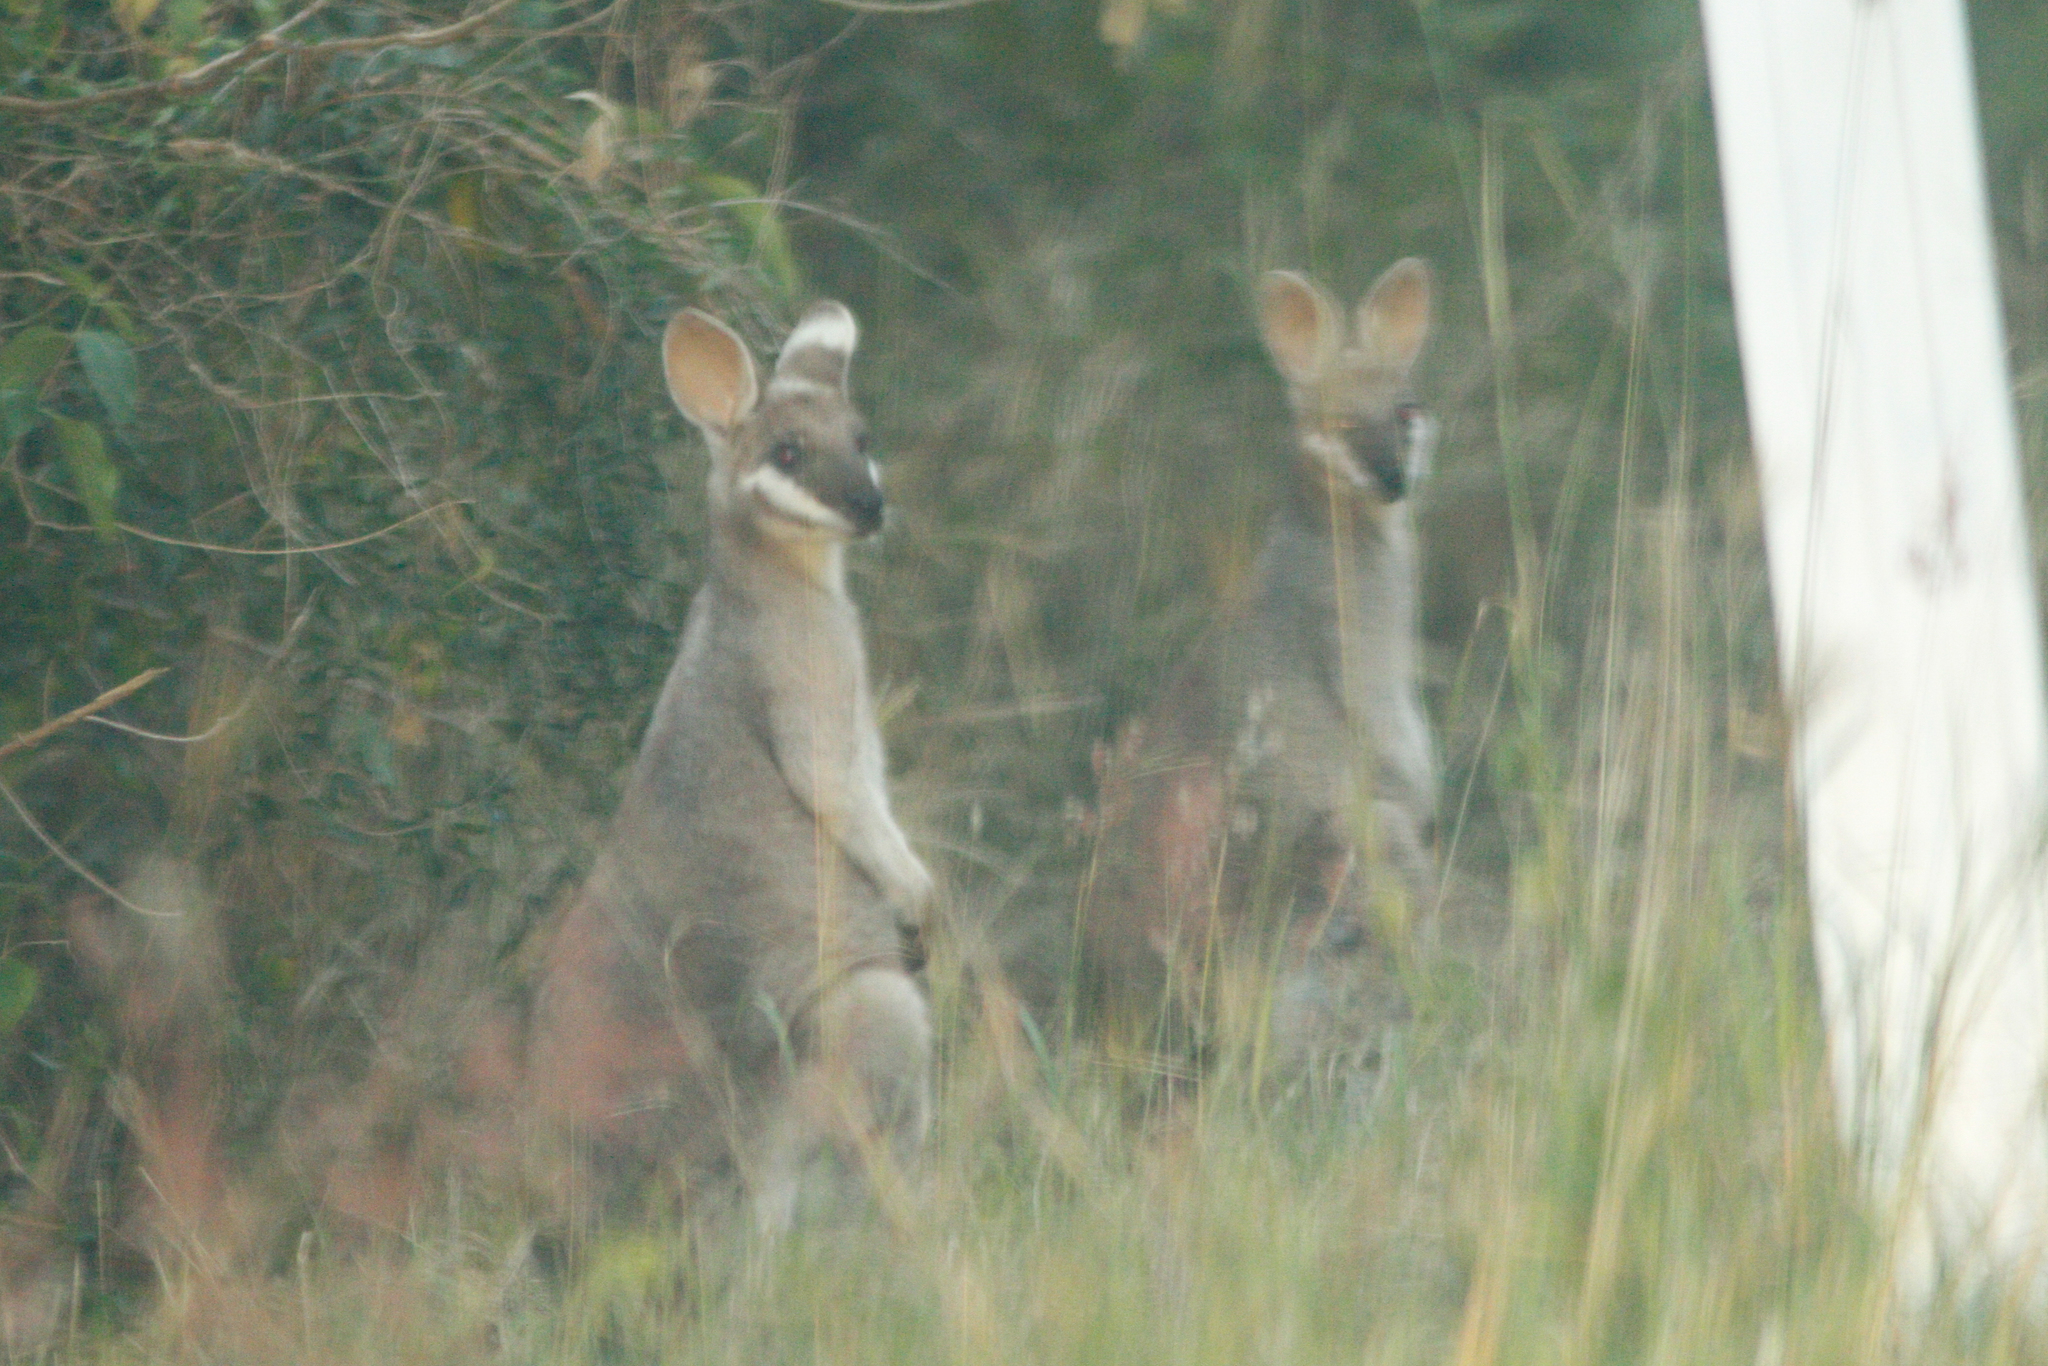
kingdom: Animalia
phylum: Chordata
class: Mammalia
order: Diprotodontia
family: Macropodidae
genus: Notamacropus
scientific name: Notamacropus parryi
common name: Whip-tailed wallaby
